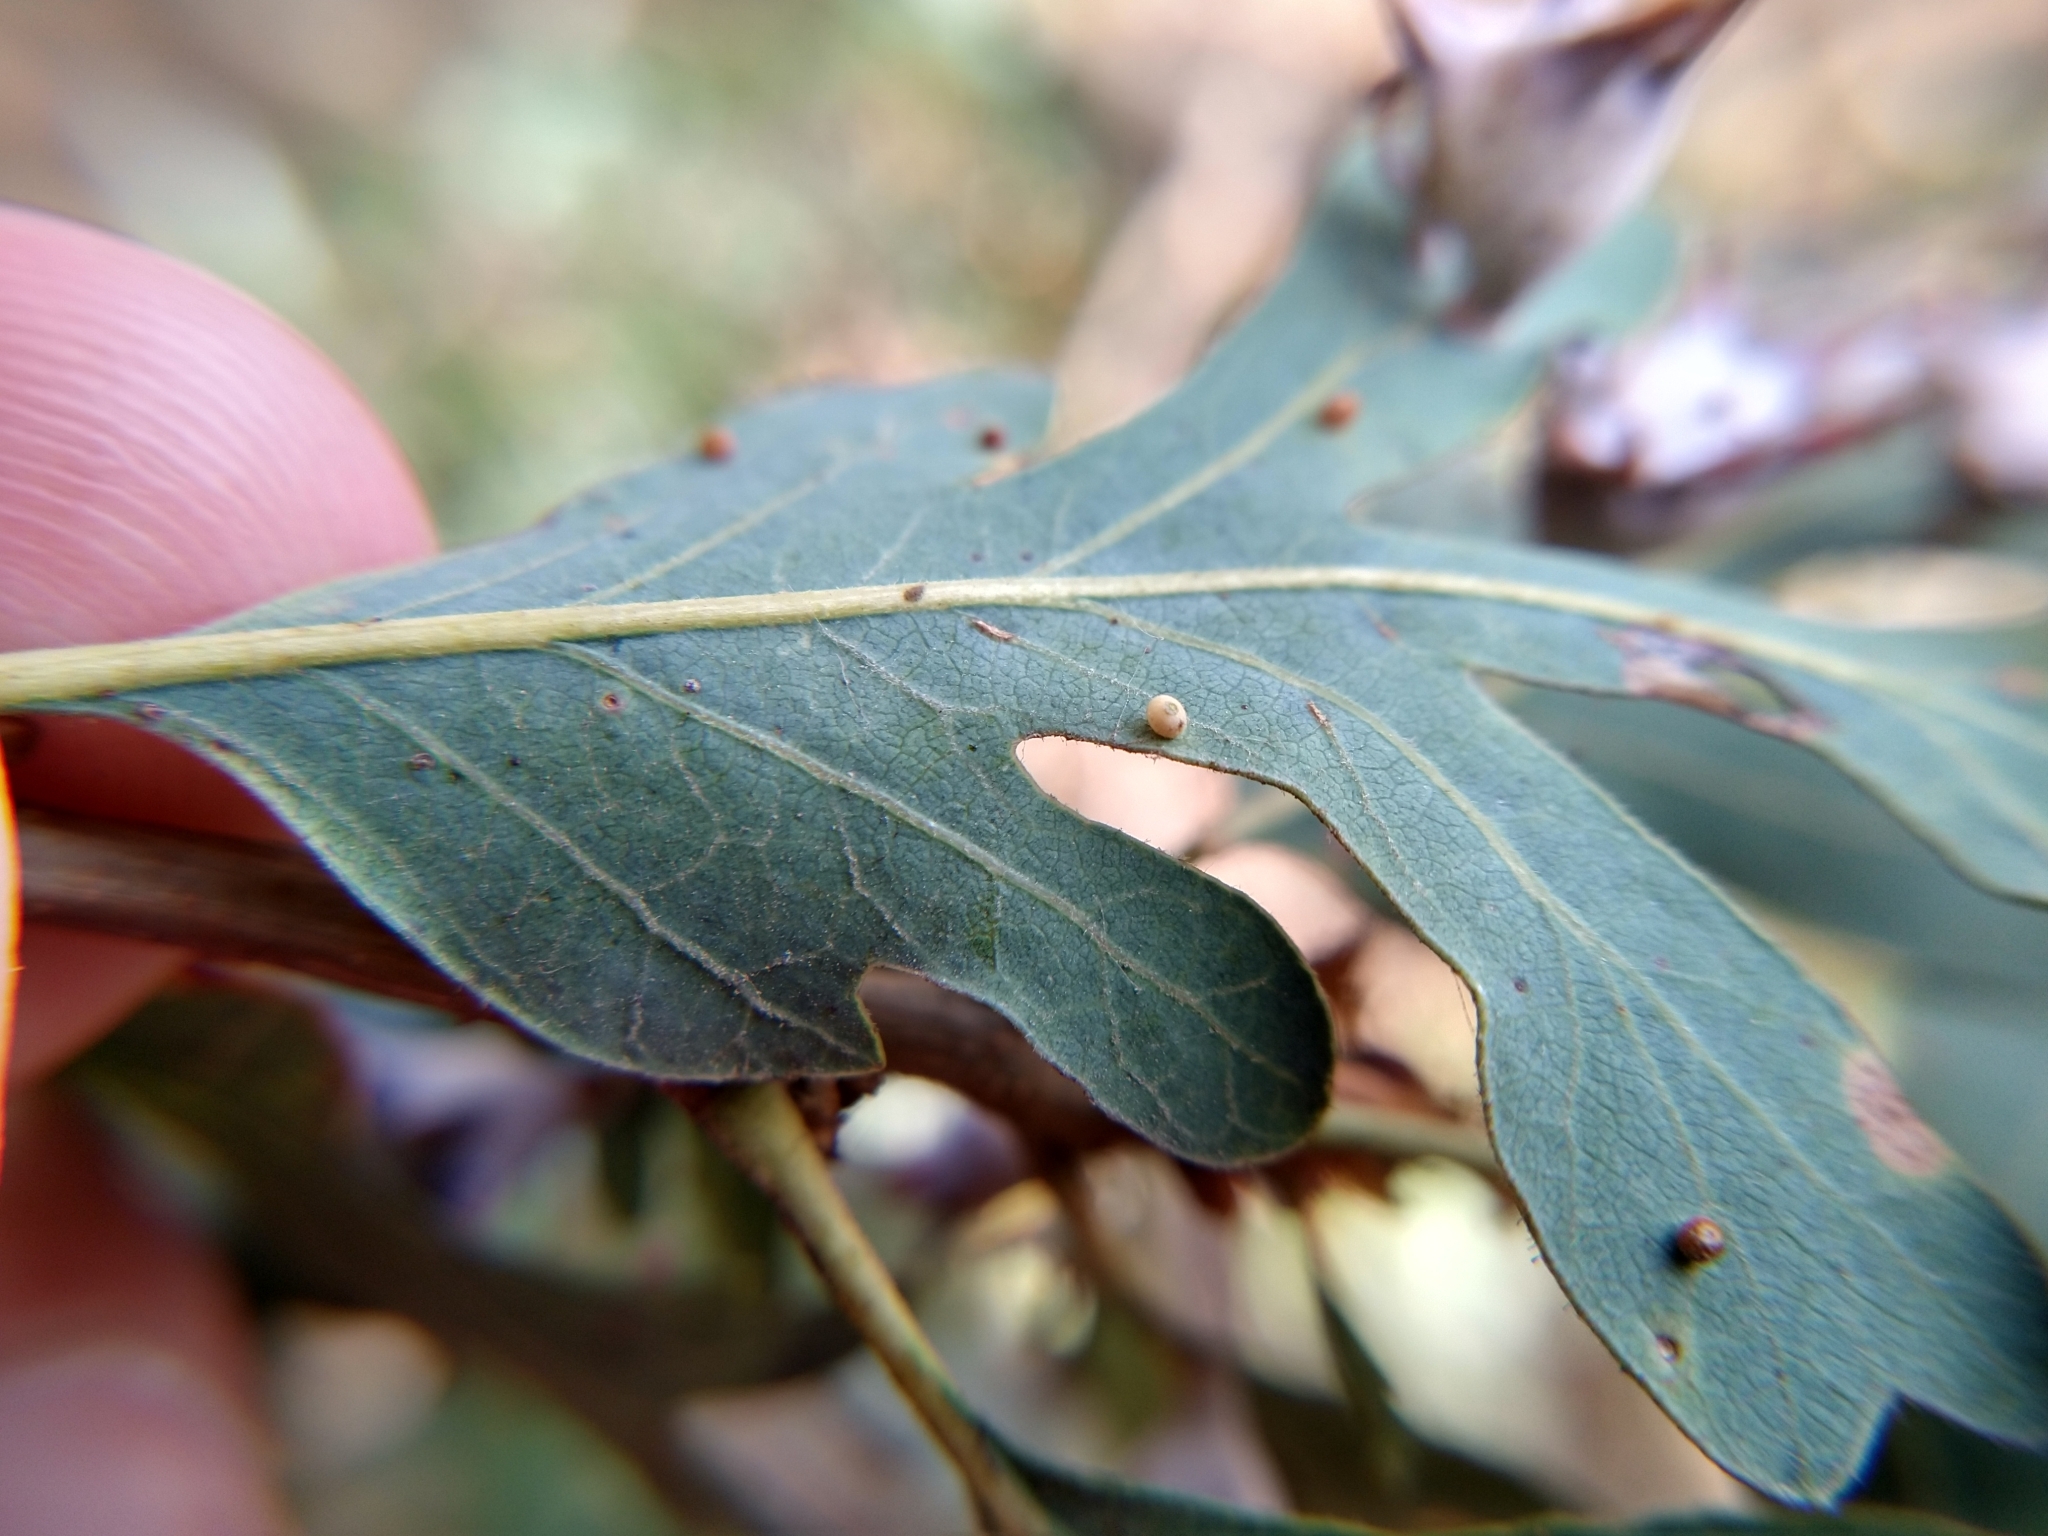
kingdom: Animalia
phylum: Arthropoda
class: Insecta
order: Hymenoptera
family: Cynipidae
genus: Neuroterus
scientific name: Neuroterus saltarius
